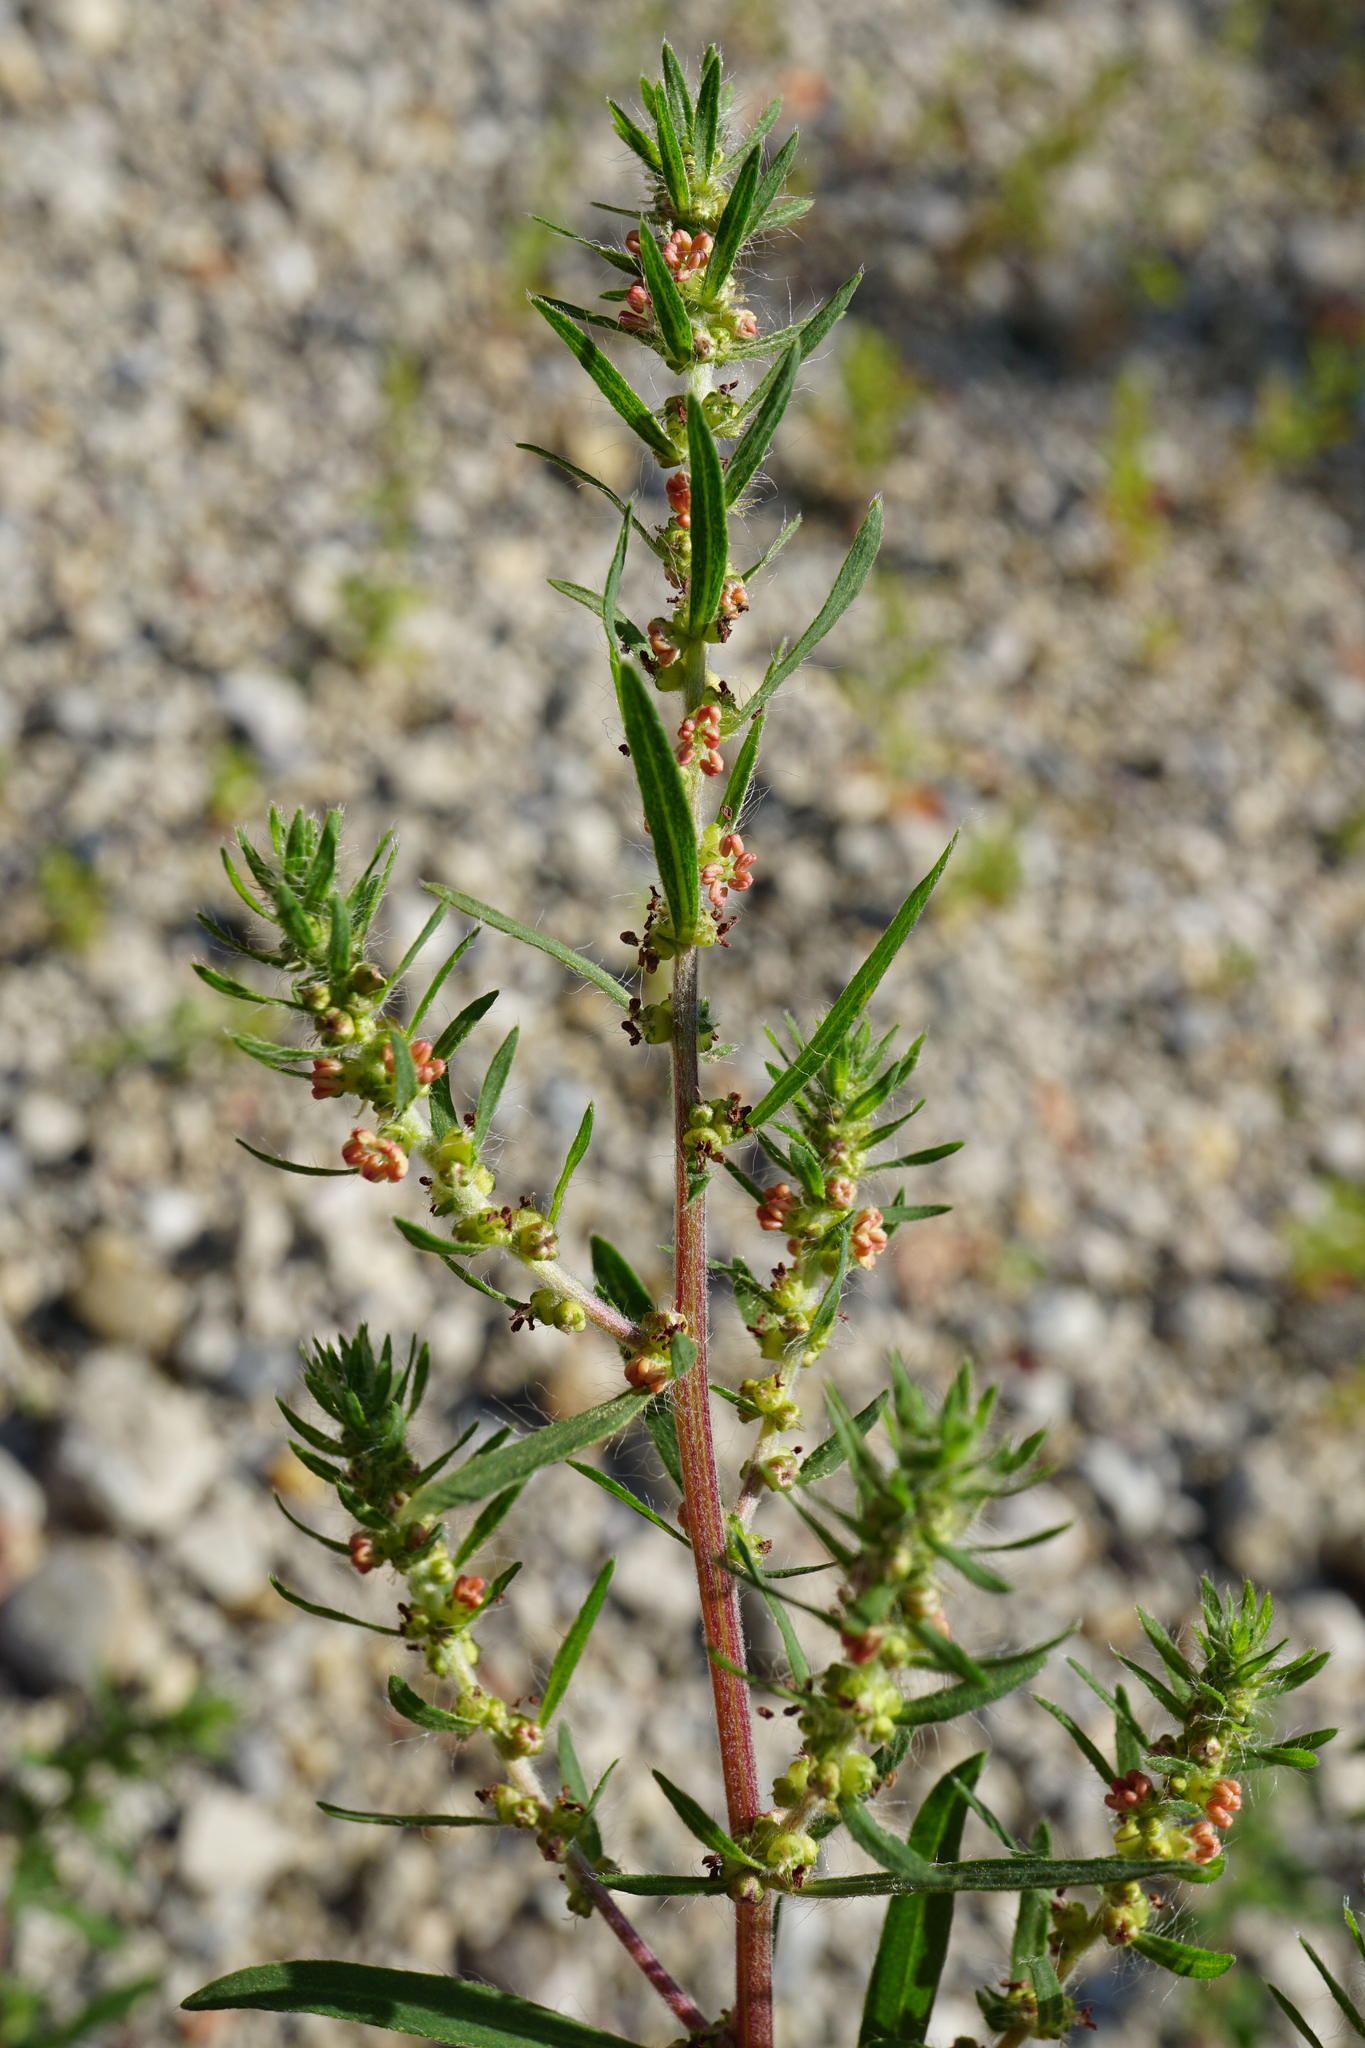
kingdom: Plantae
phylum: Tracheophyta
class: Magnoliopsida
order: Caryophyllales
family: Amaranthaceae
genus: Bassia
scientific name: Bassia scoparia
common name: Belvedere
